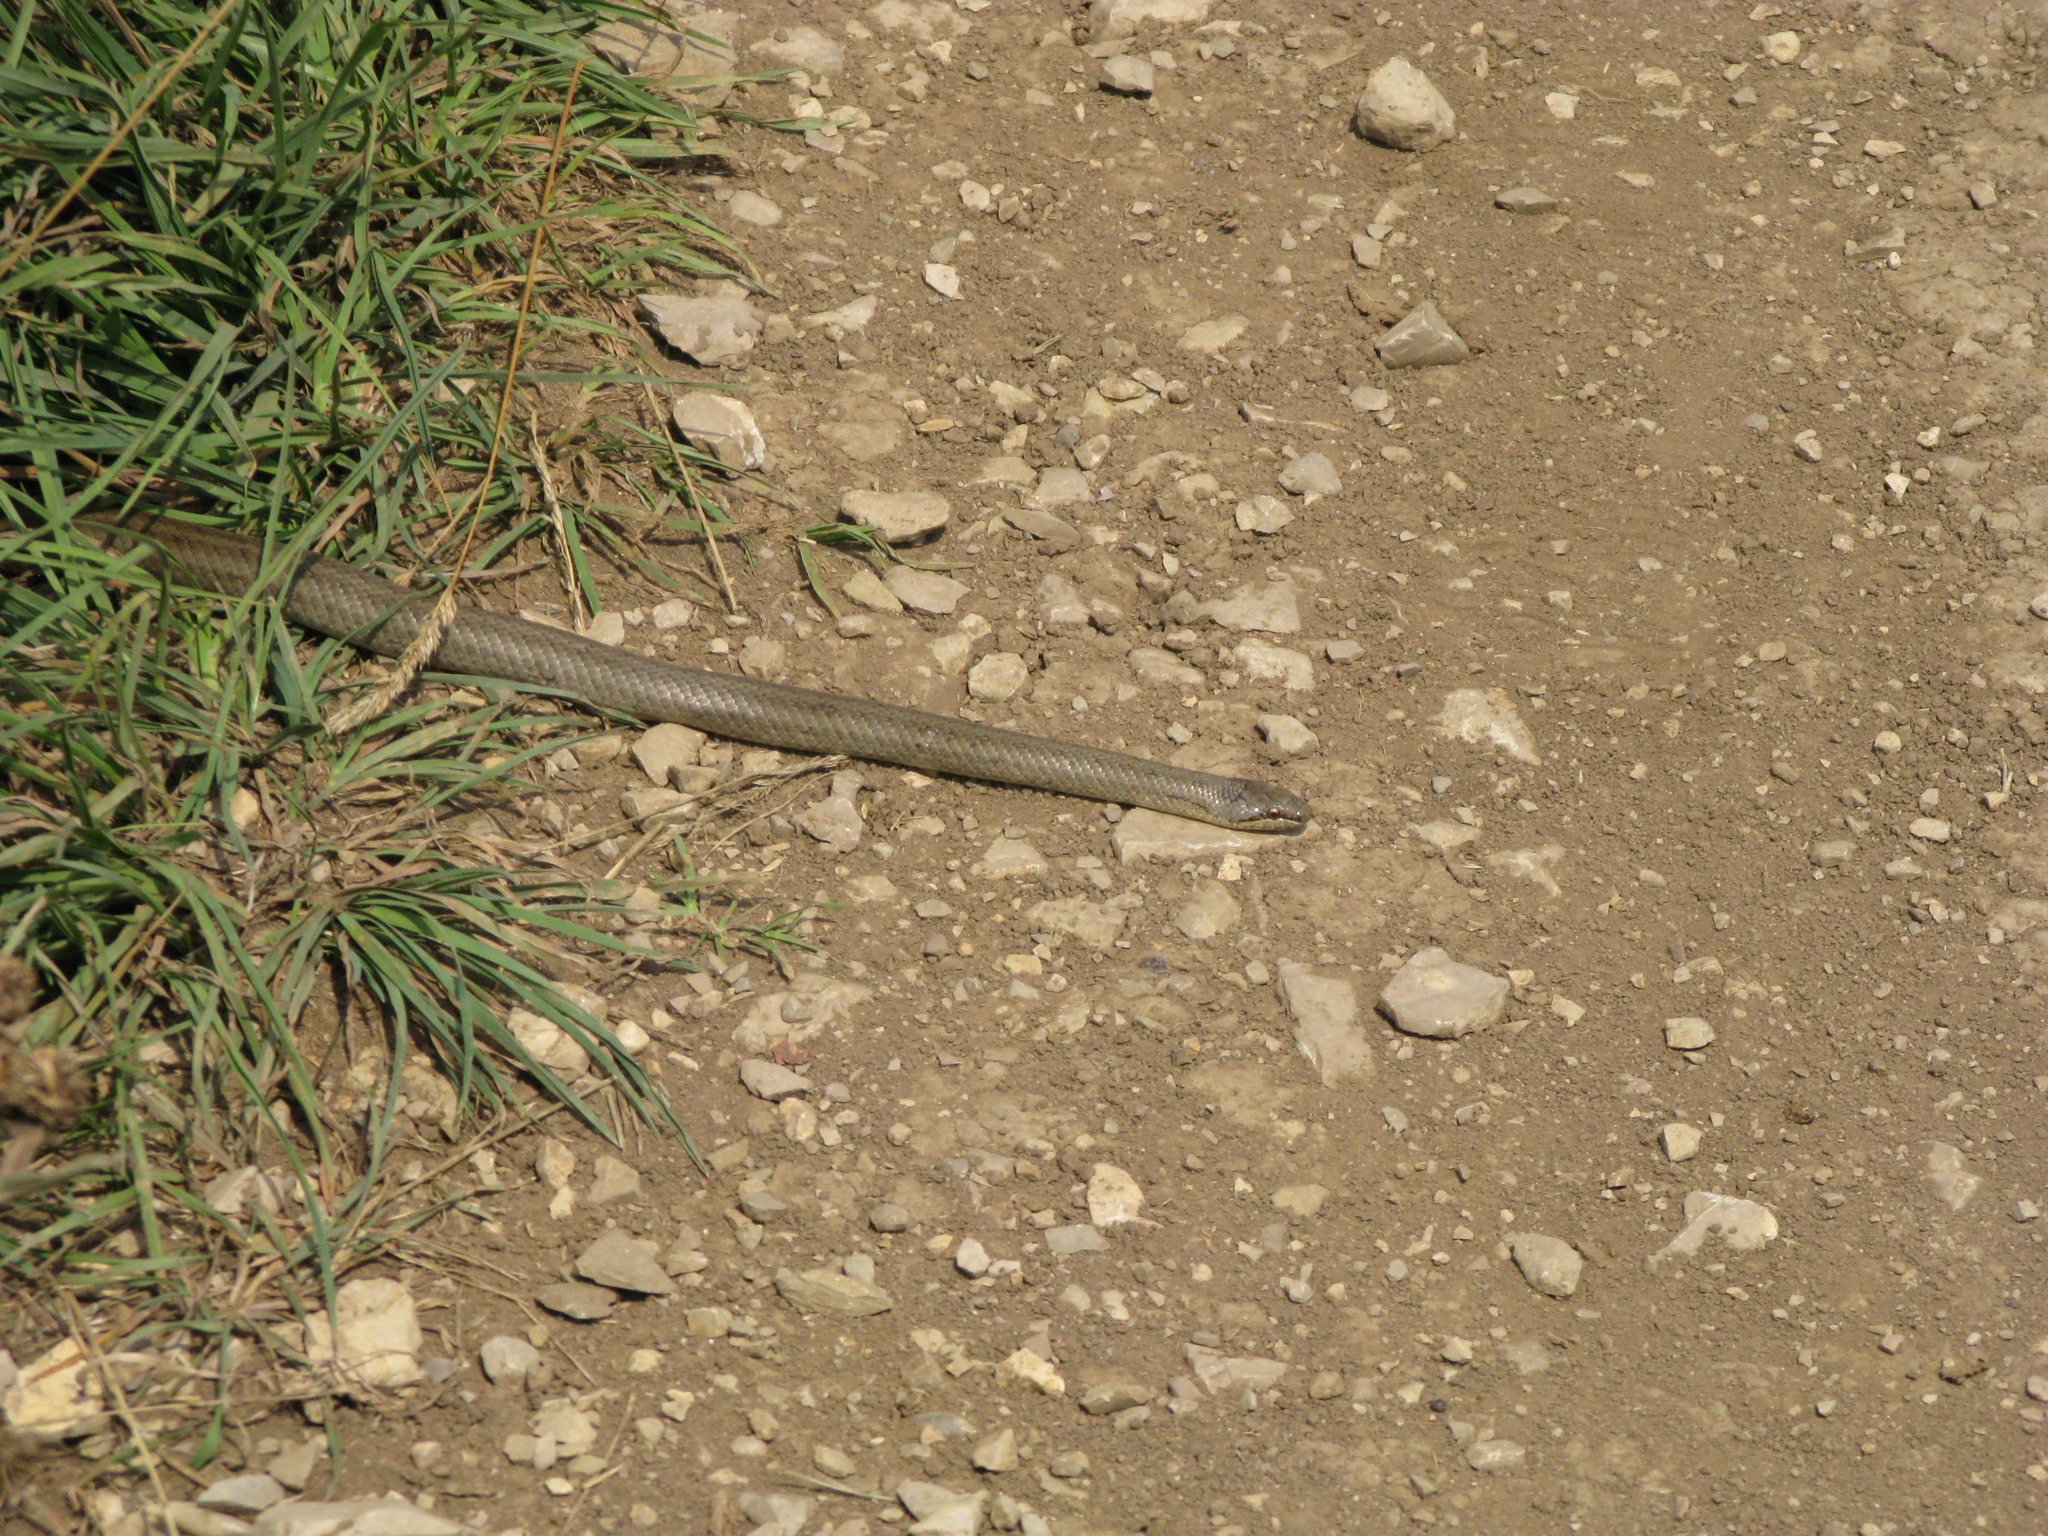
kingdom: Animalia
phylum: Chordata
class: Squamata
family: Colubridae
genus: Coronella
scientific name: Coronella austriaca
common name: Smooth snake
